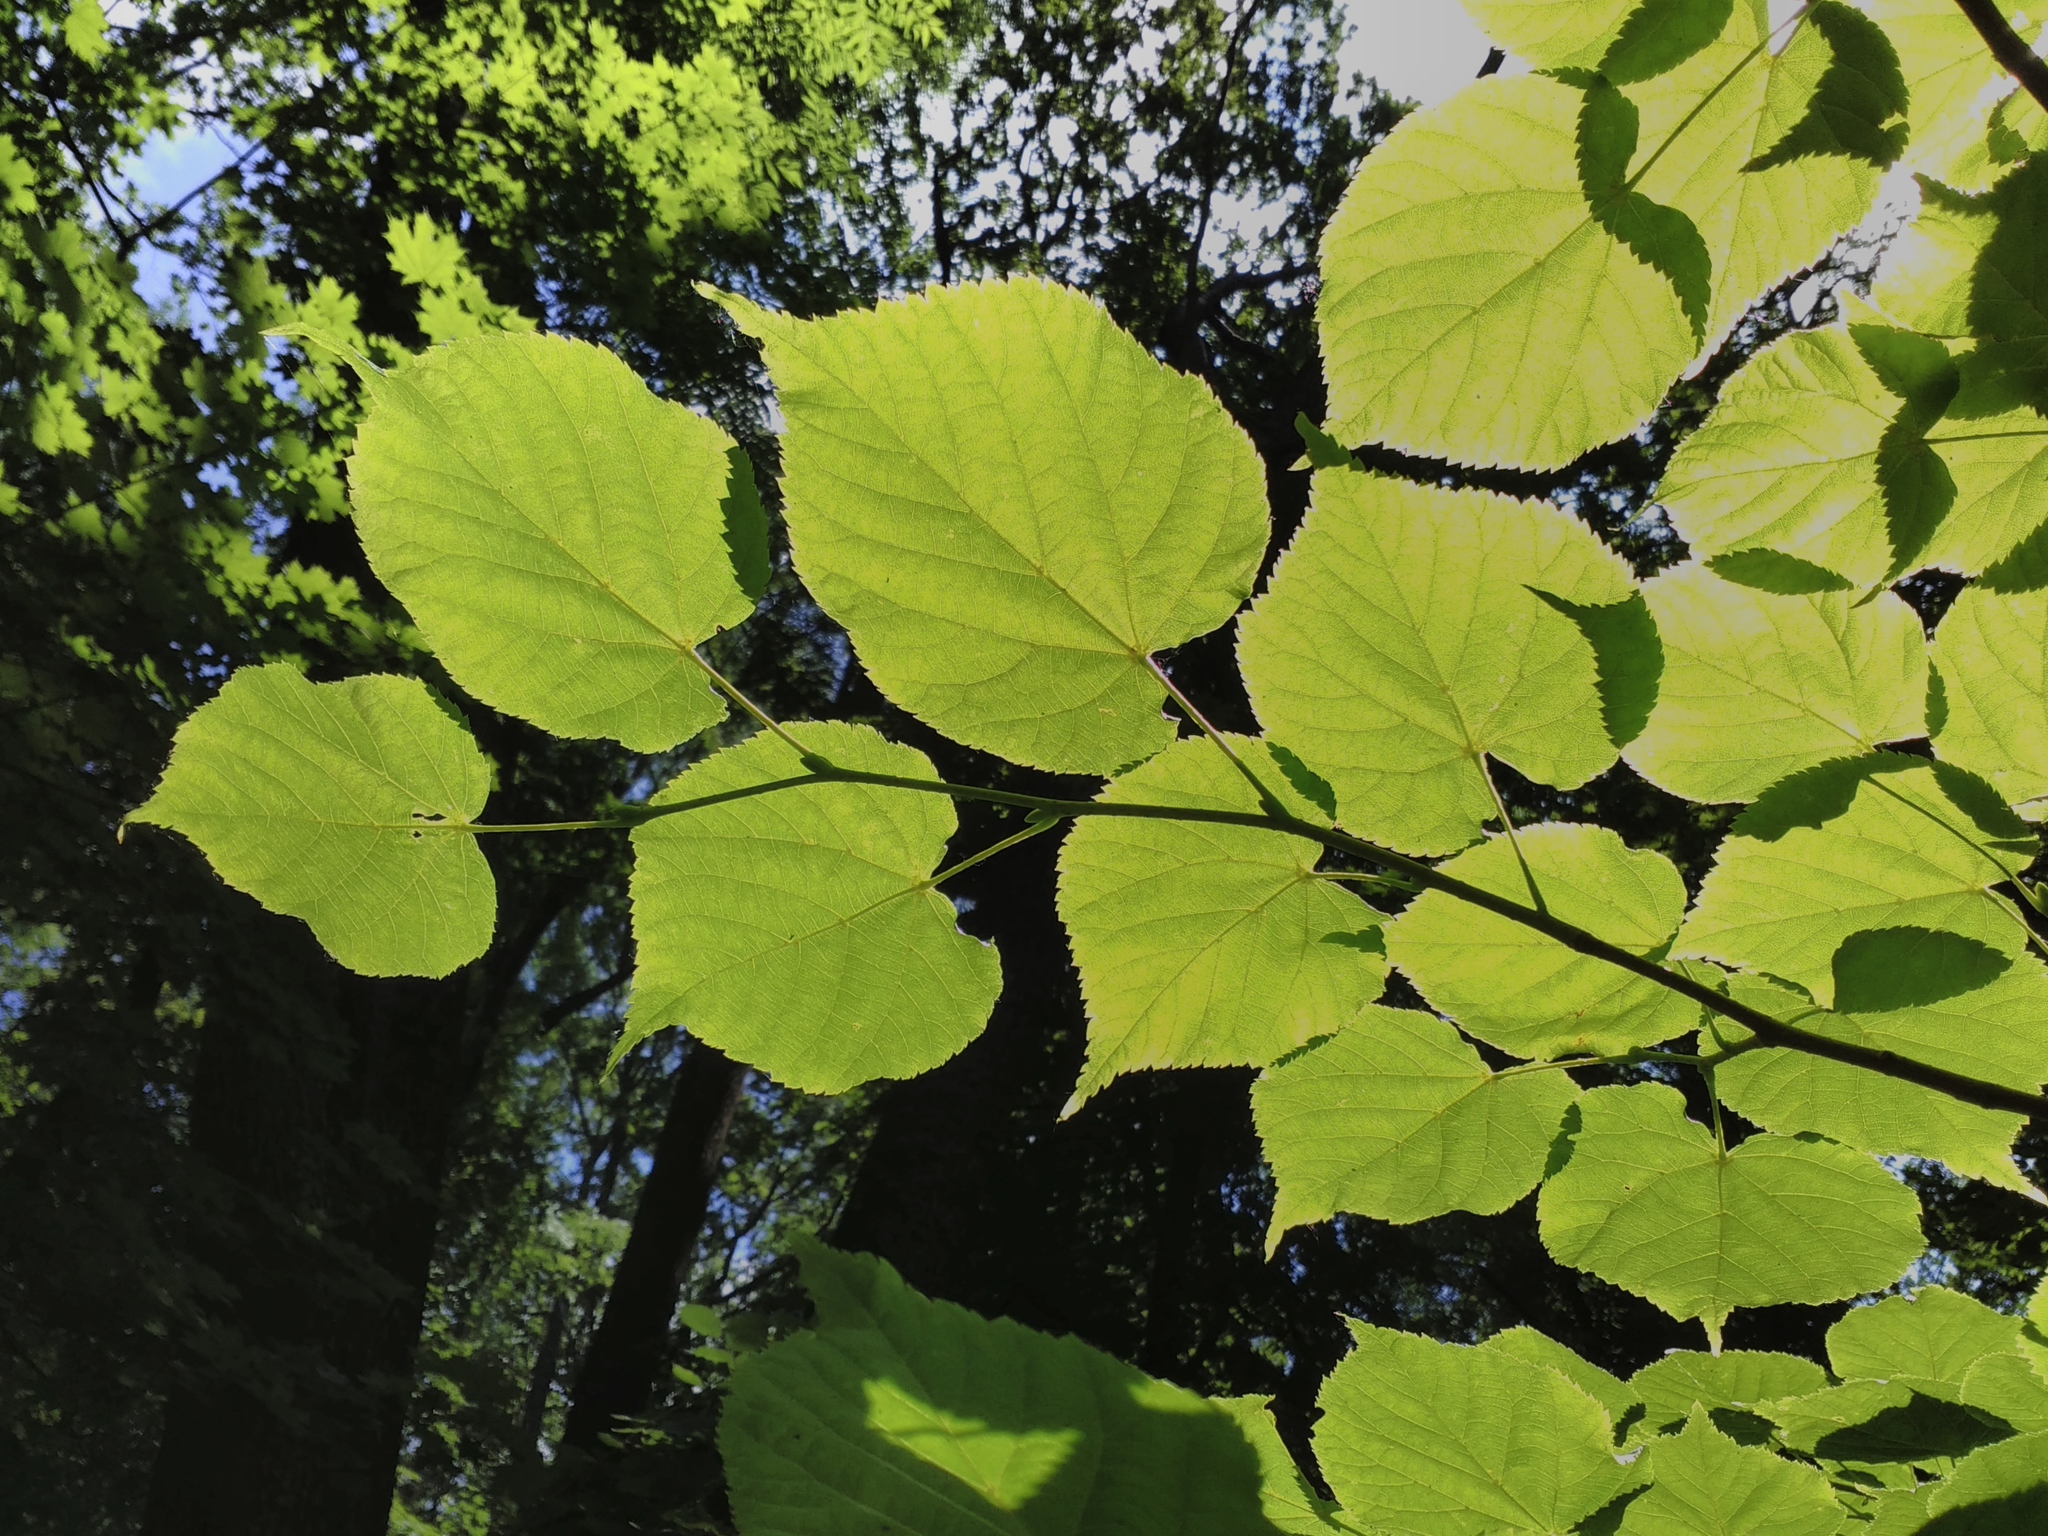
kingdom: Plantae
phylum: Tracheophyta
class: Magnoliopsida
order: Malvales
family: Malvaceae
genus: Tilia
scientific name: Tilia cordata
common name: Small-leaved lime
